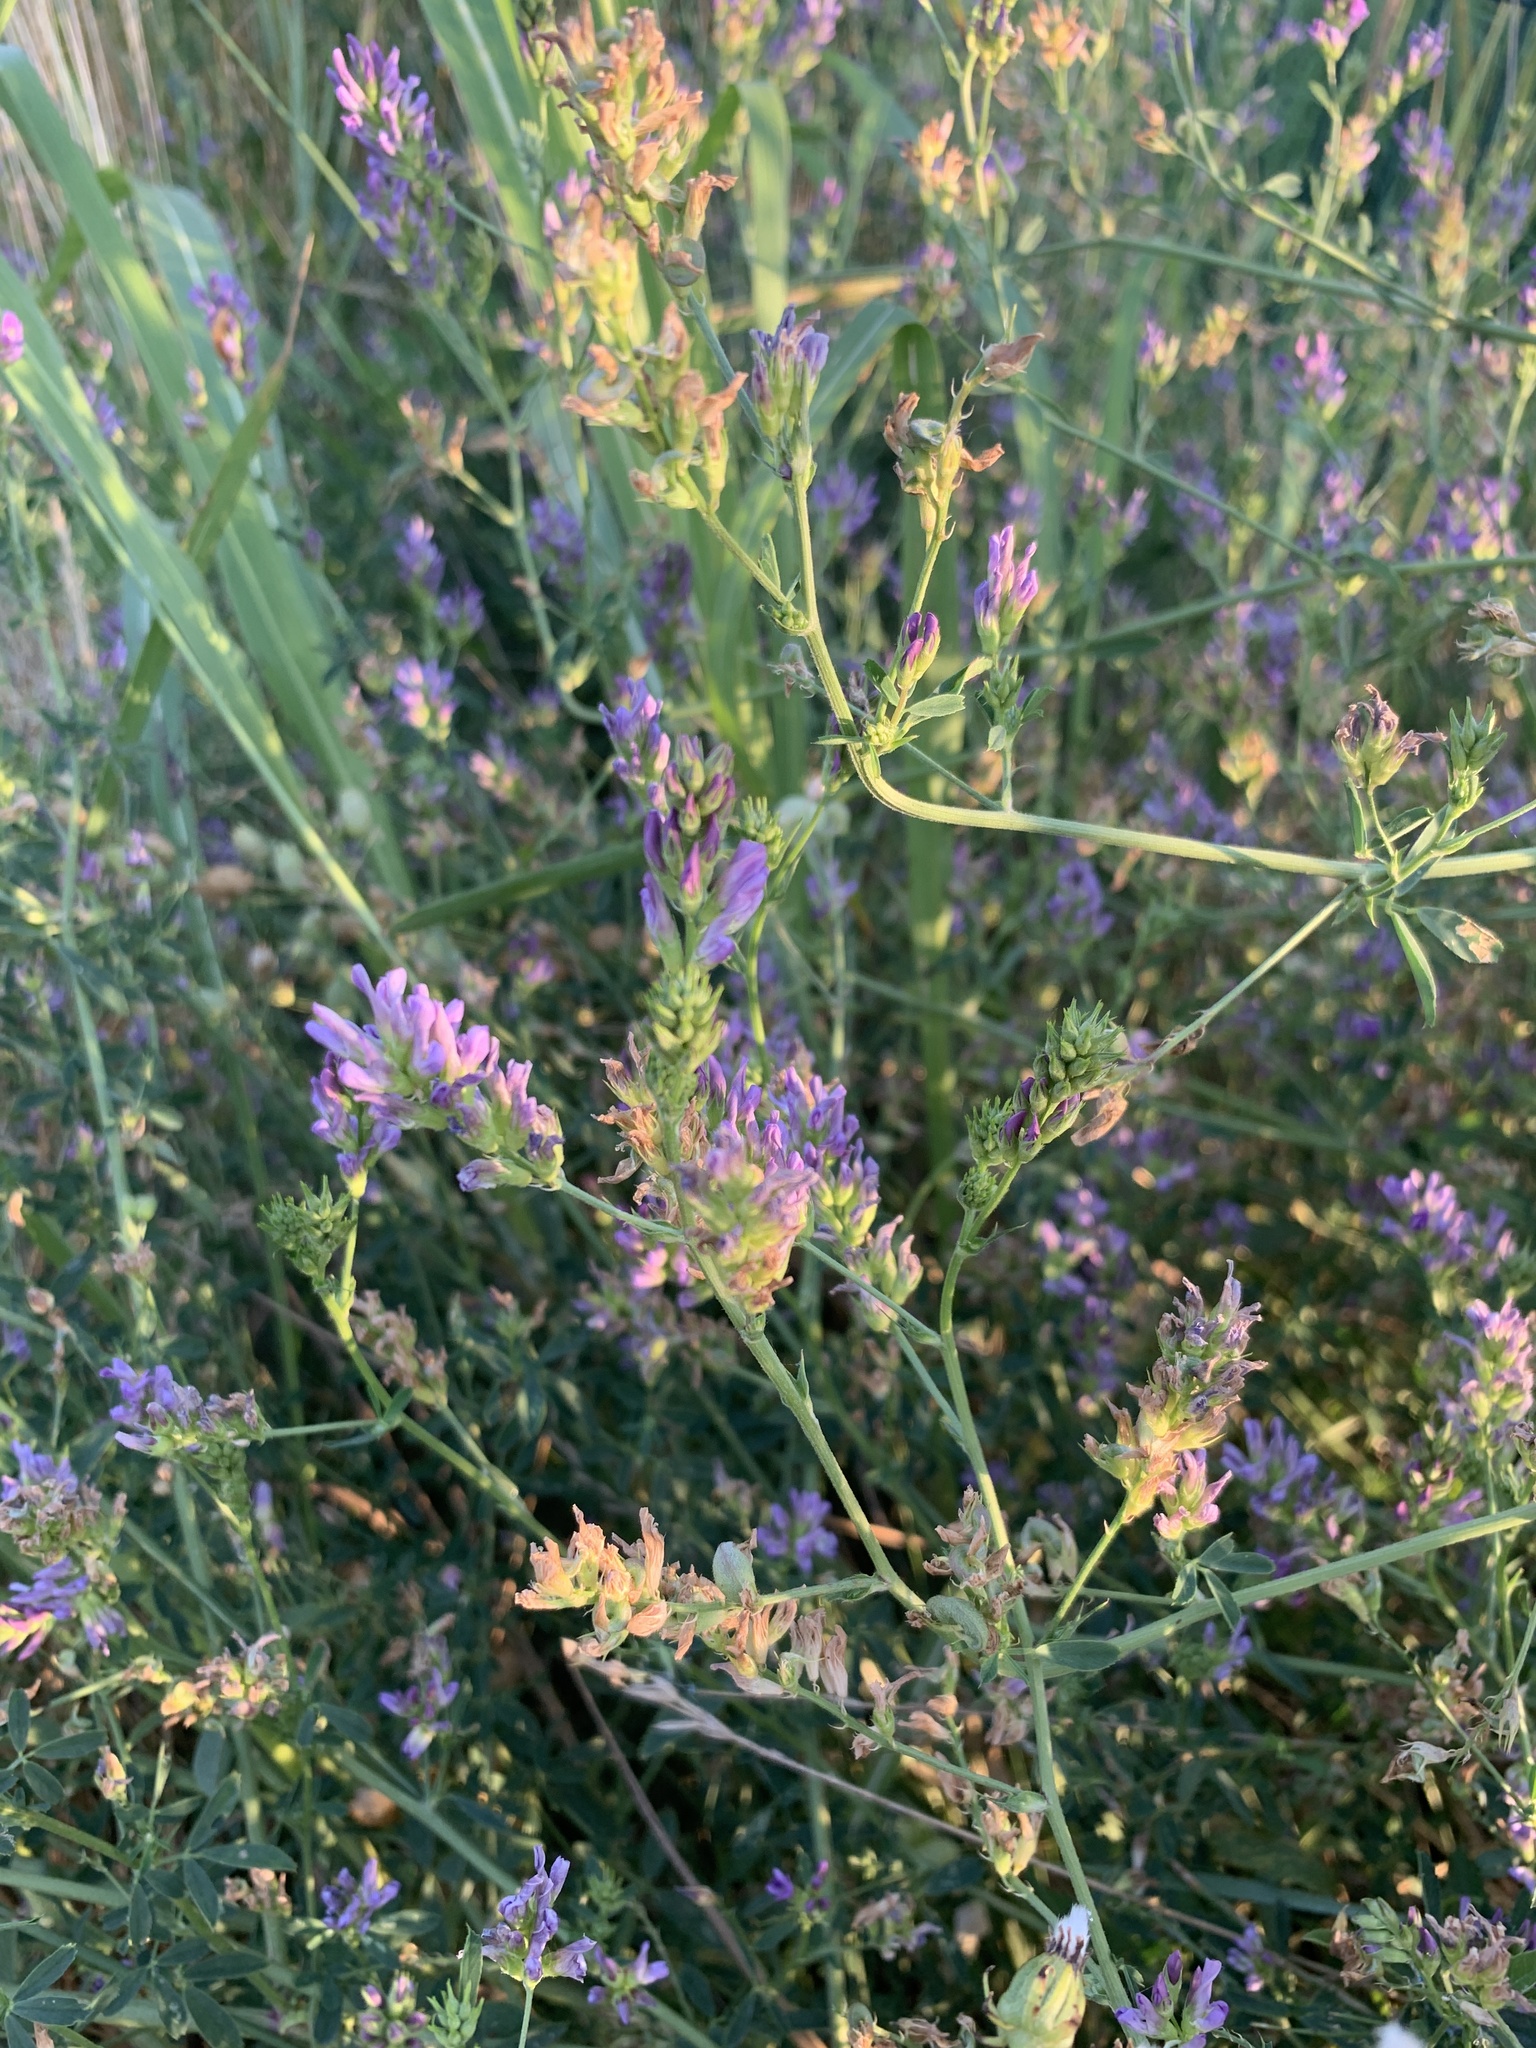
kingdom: Plantae
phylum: Tracheophyta
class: Magnoliopsida
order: Fabales
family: Fabaceae
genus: Medicago
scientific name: Medicago sativa
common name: Alfalfa
